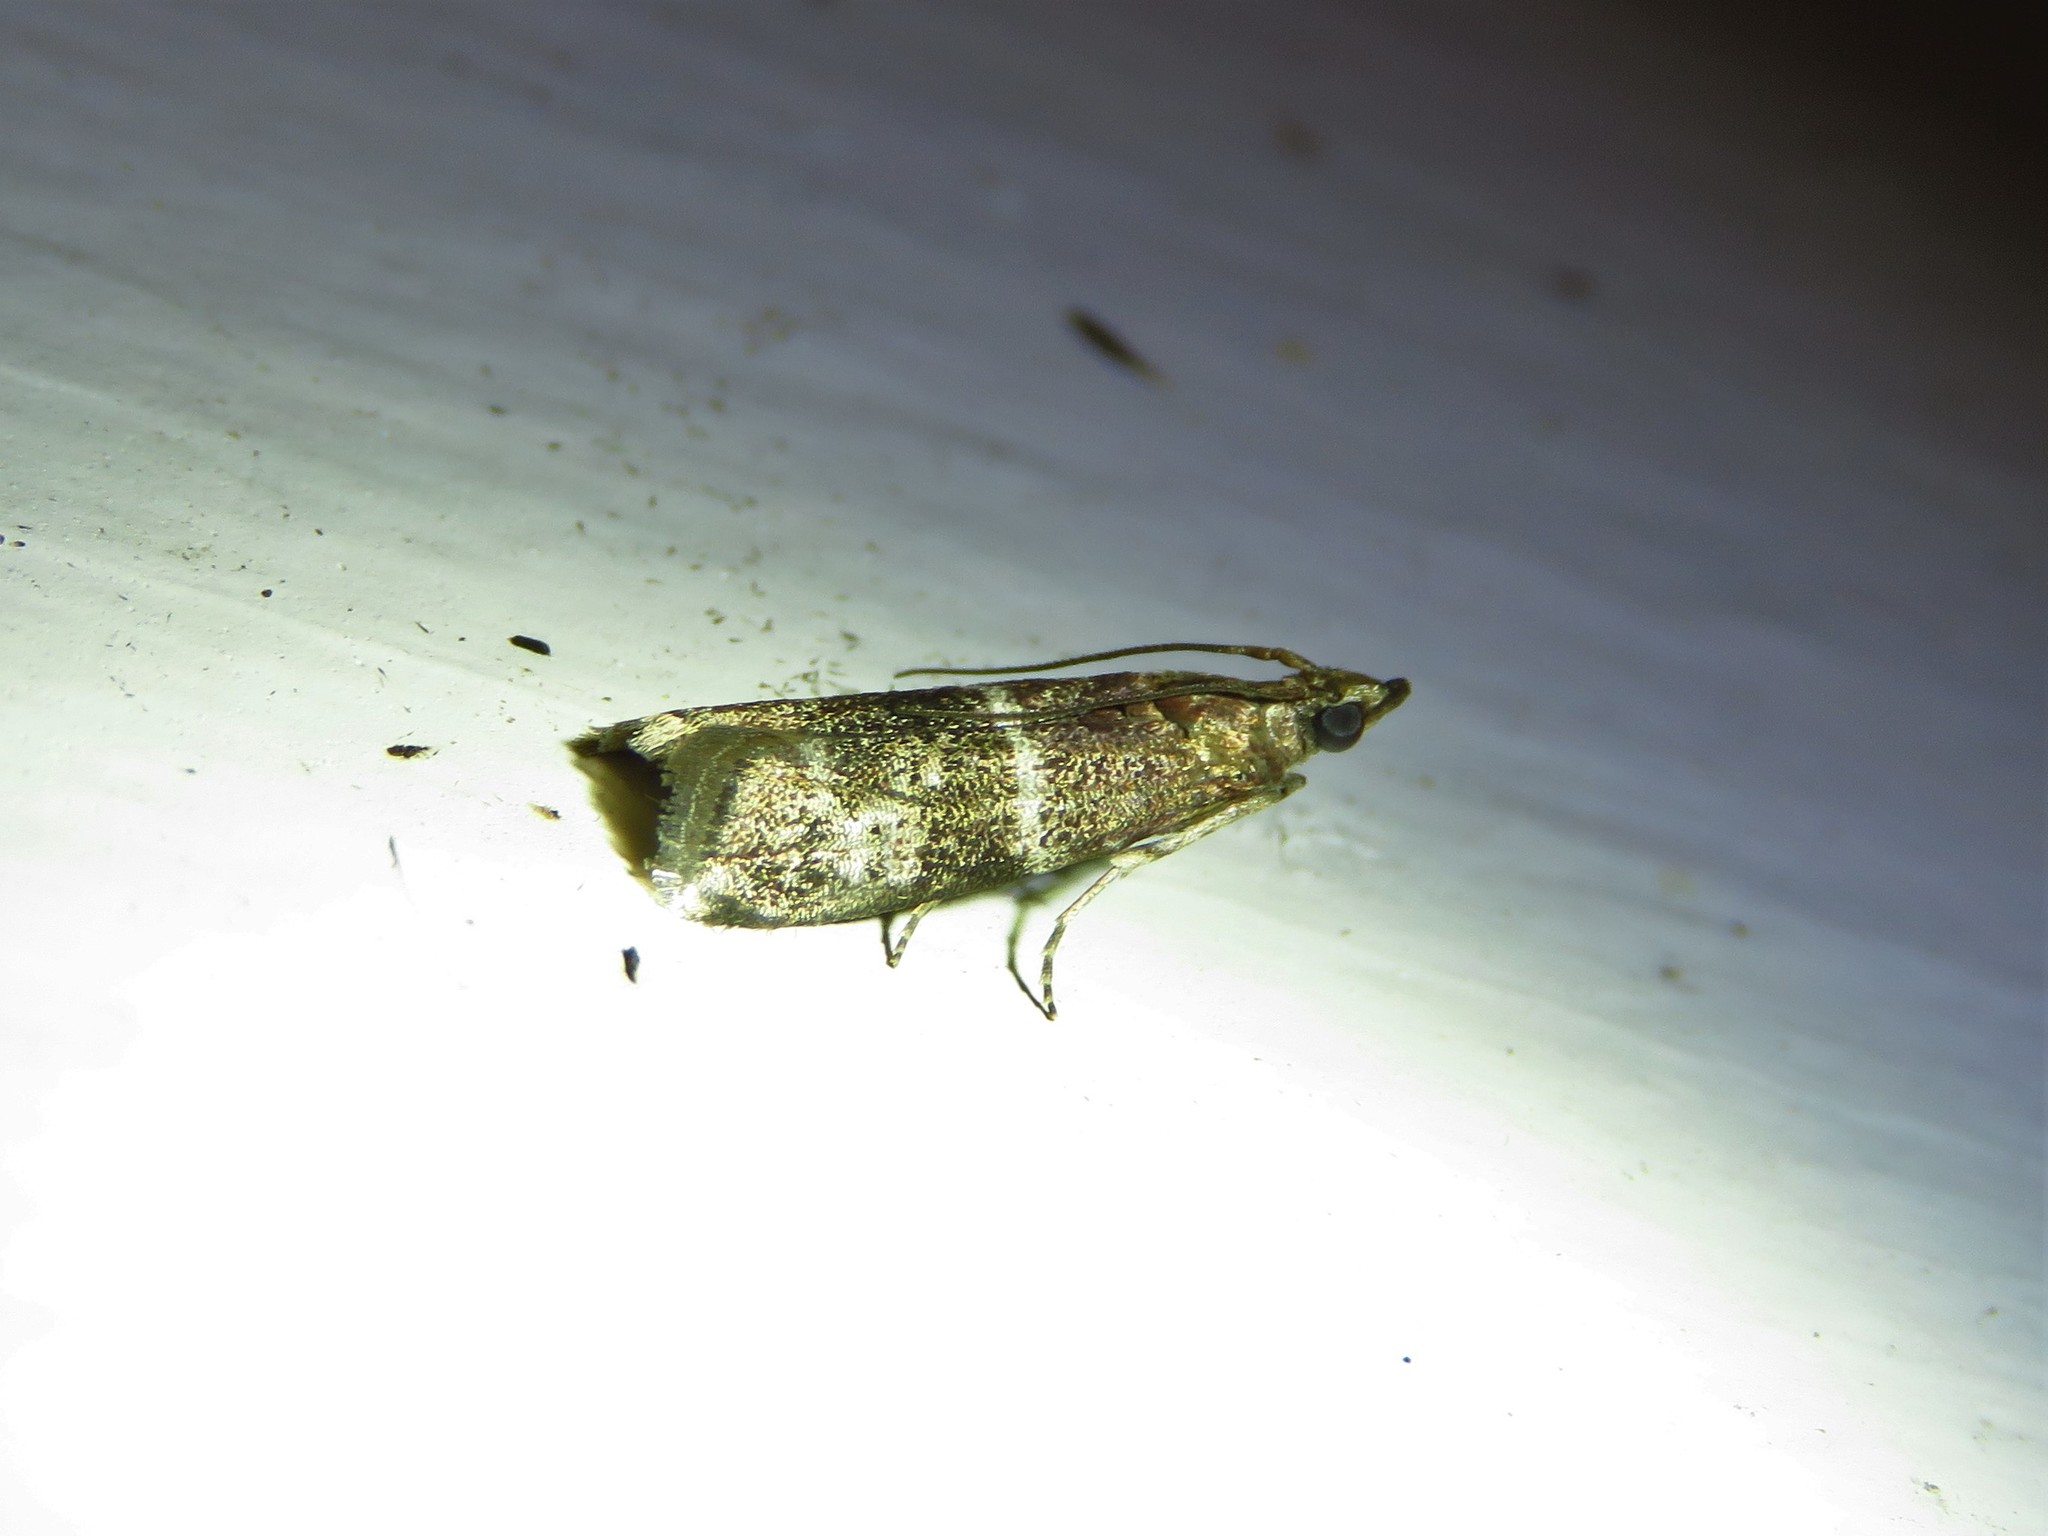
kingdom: Animalia
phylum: Arthropoda
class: Insecta
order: Lepidoptera
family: Pyralidae
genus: Moodna
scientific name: Moodna ostrinella
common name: Darker moodna moth
